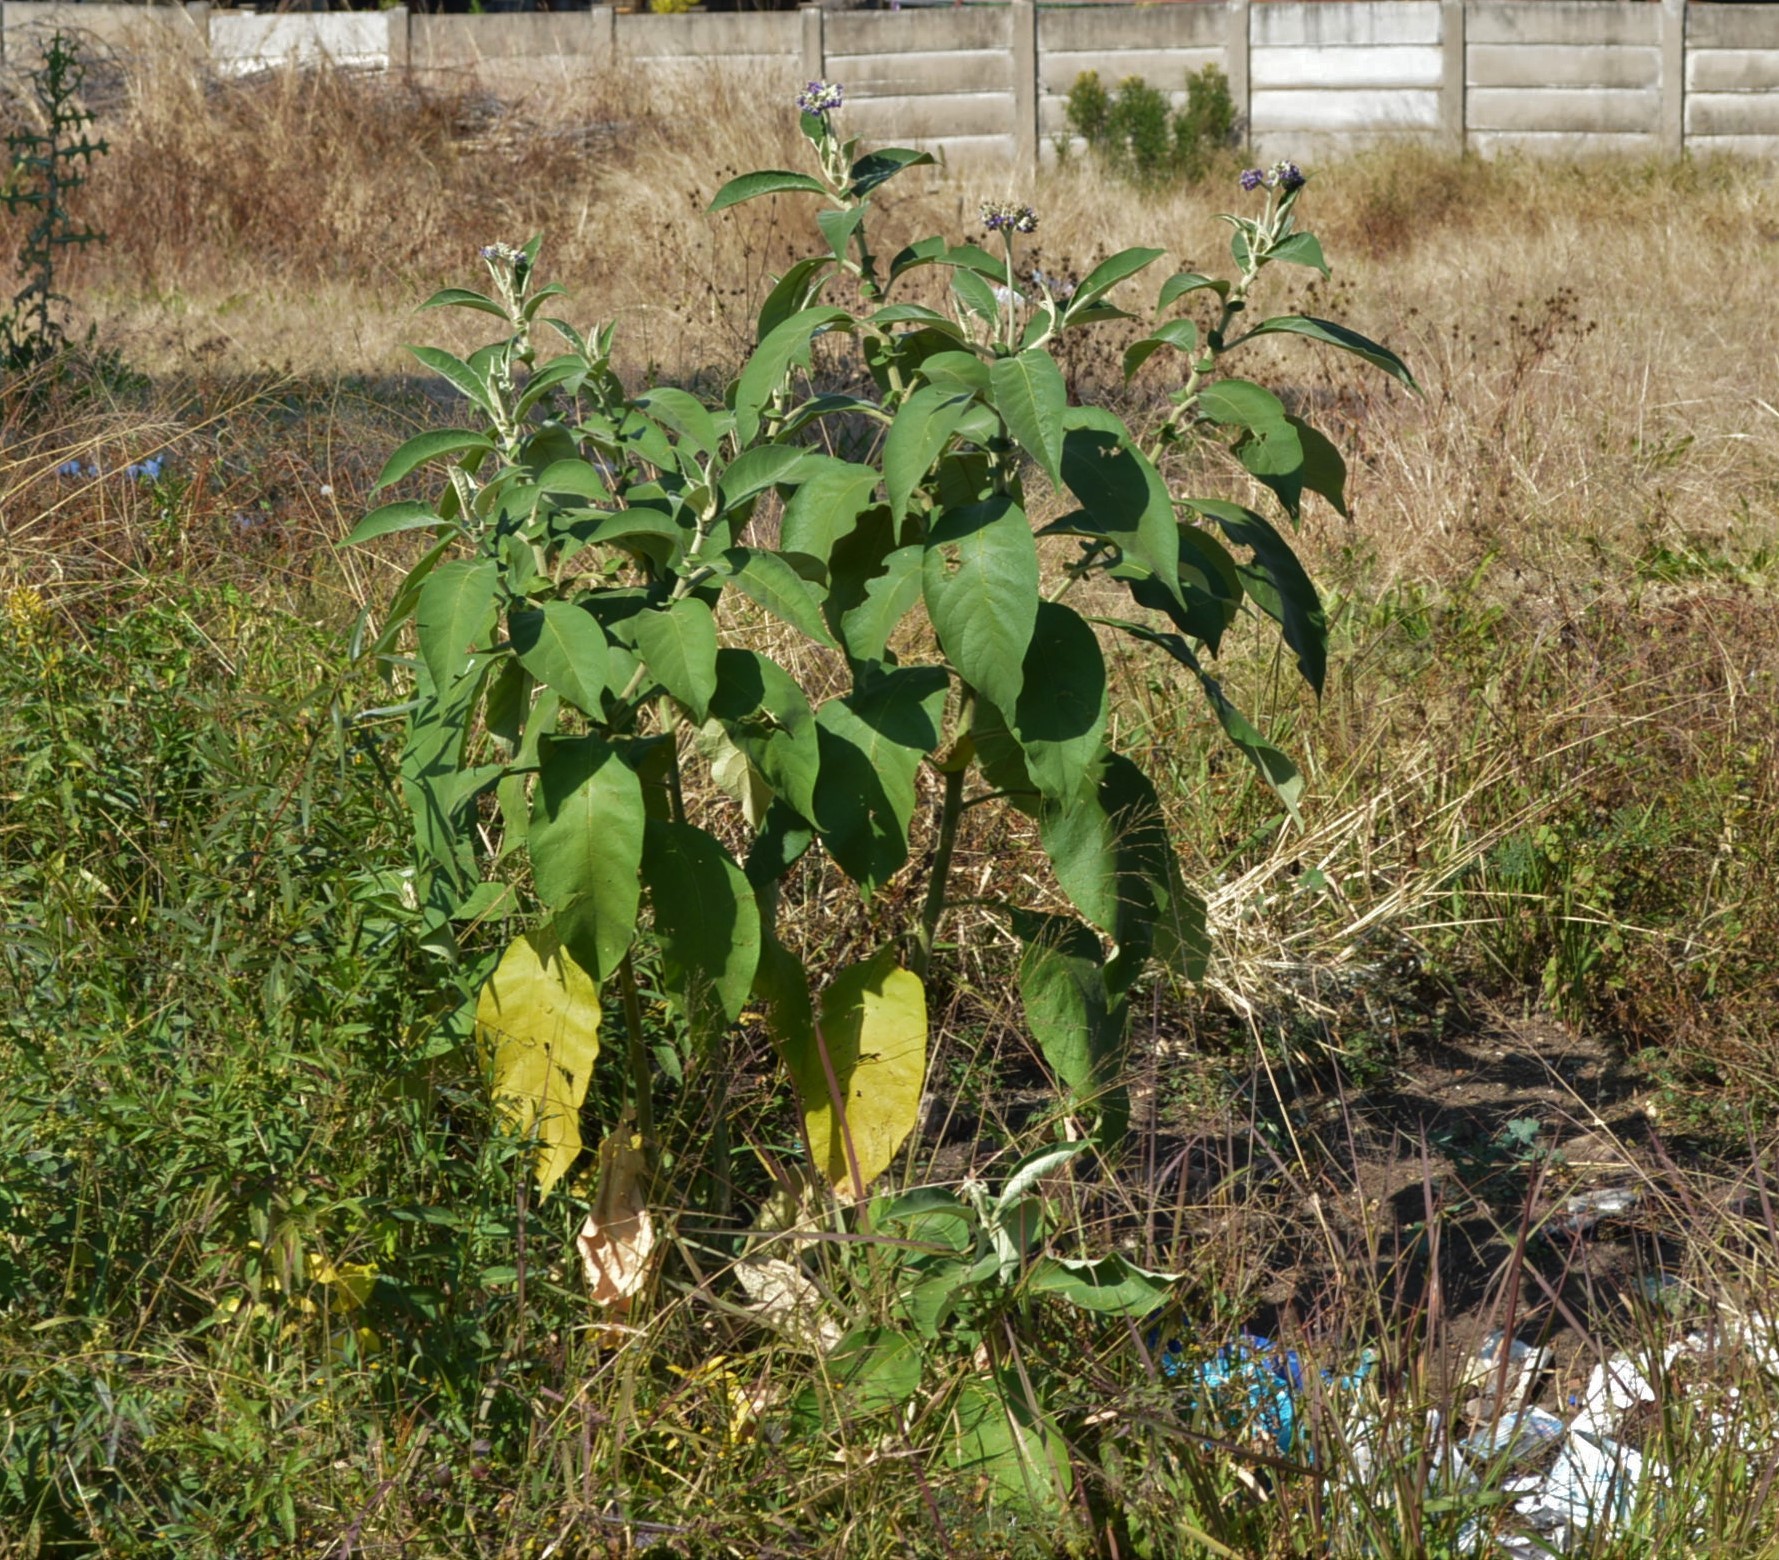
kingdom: Plantae
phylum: Tracheophyta
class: Magnoliopsida
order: Solanales
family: Solanaceae
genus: Solanum
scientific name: Solanum mauritianum
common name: Earleaf nightshade
